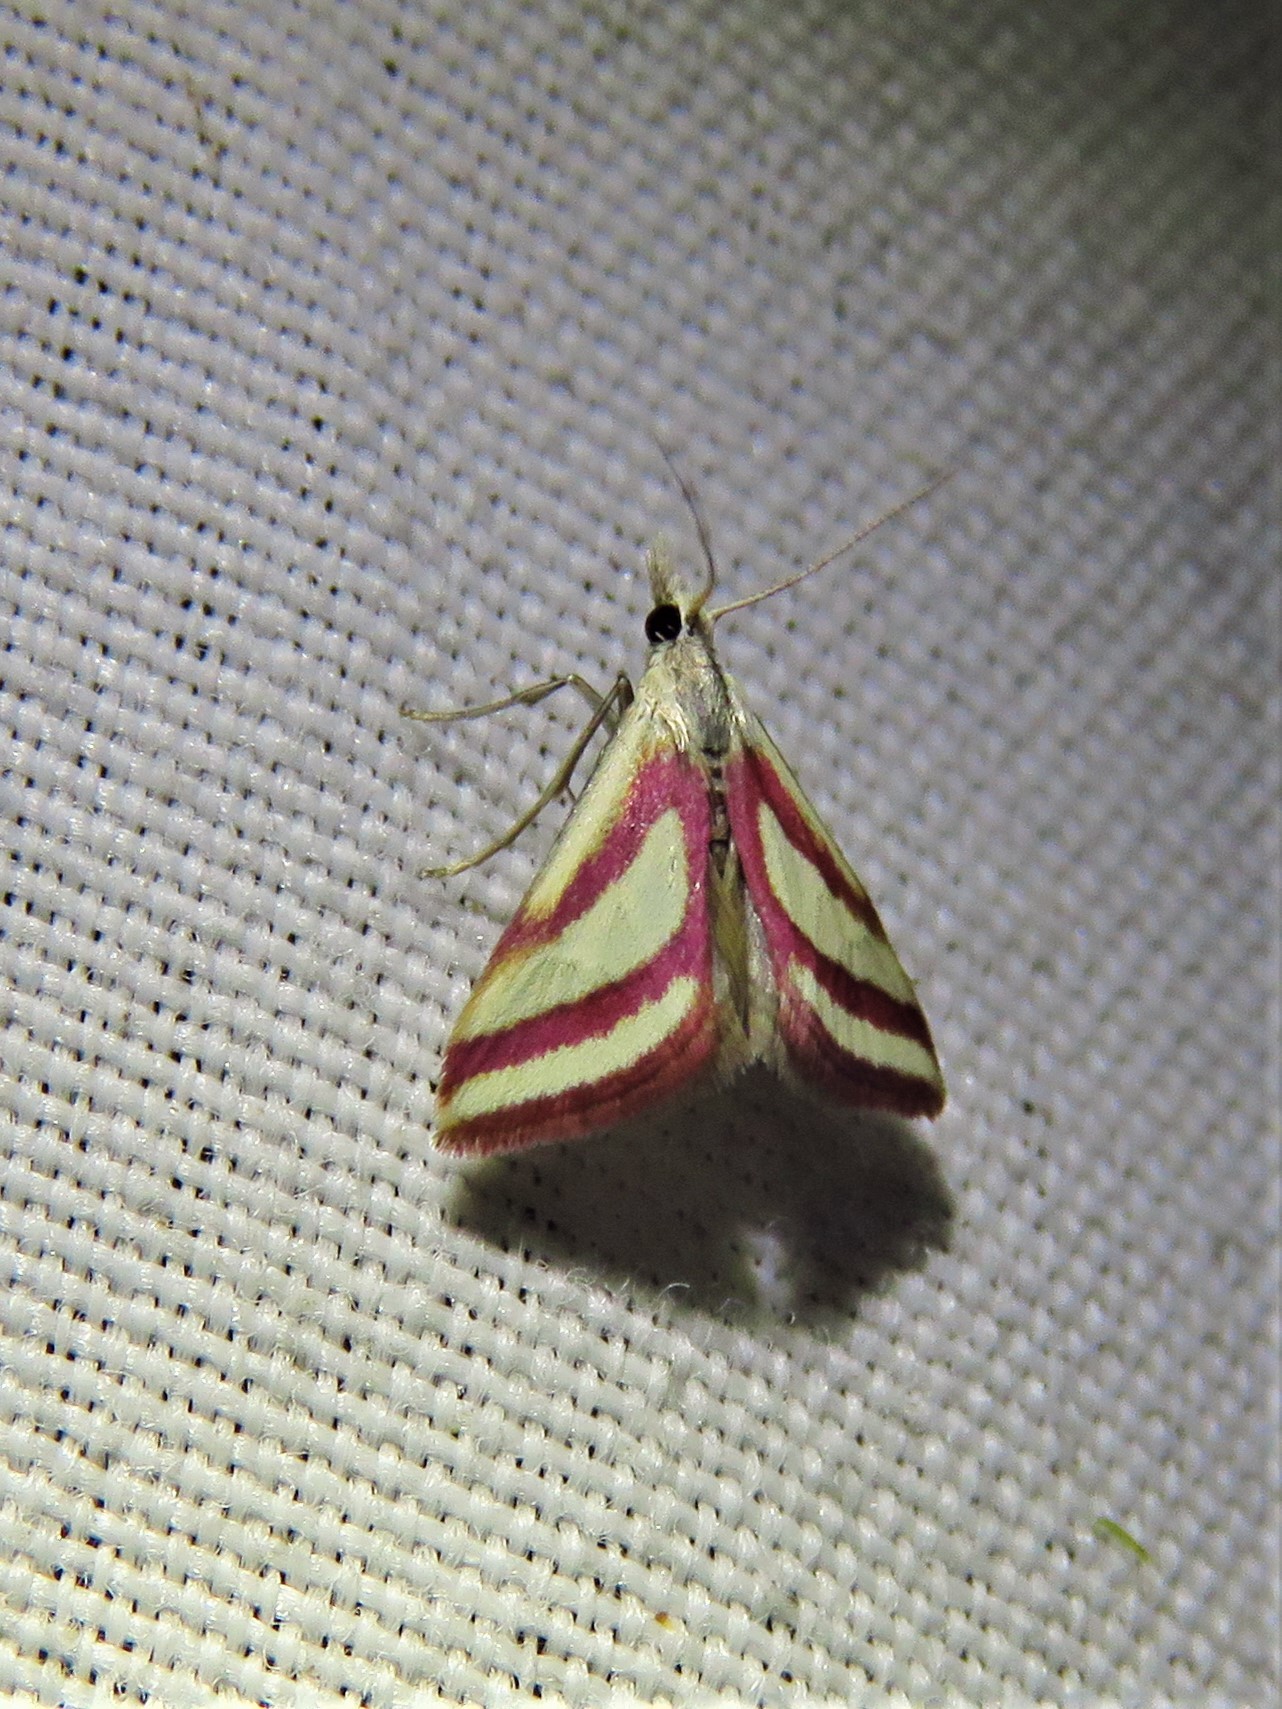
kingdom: Animalia
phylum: Arthropoda
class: Insecta
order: Lepidoptera
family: Crambidae
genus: Microtheoris
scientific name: Microtheoris vibicalis
